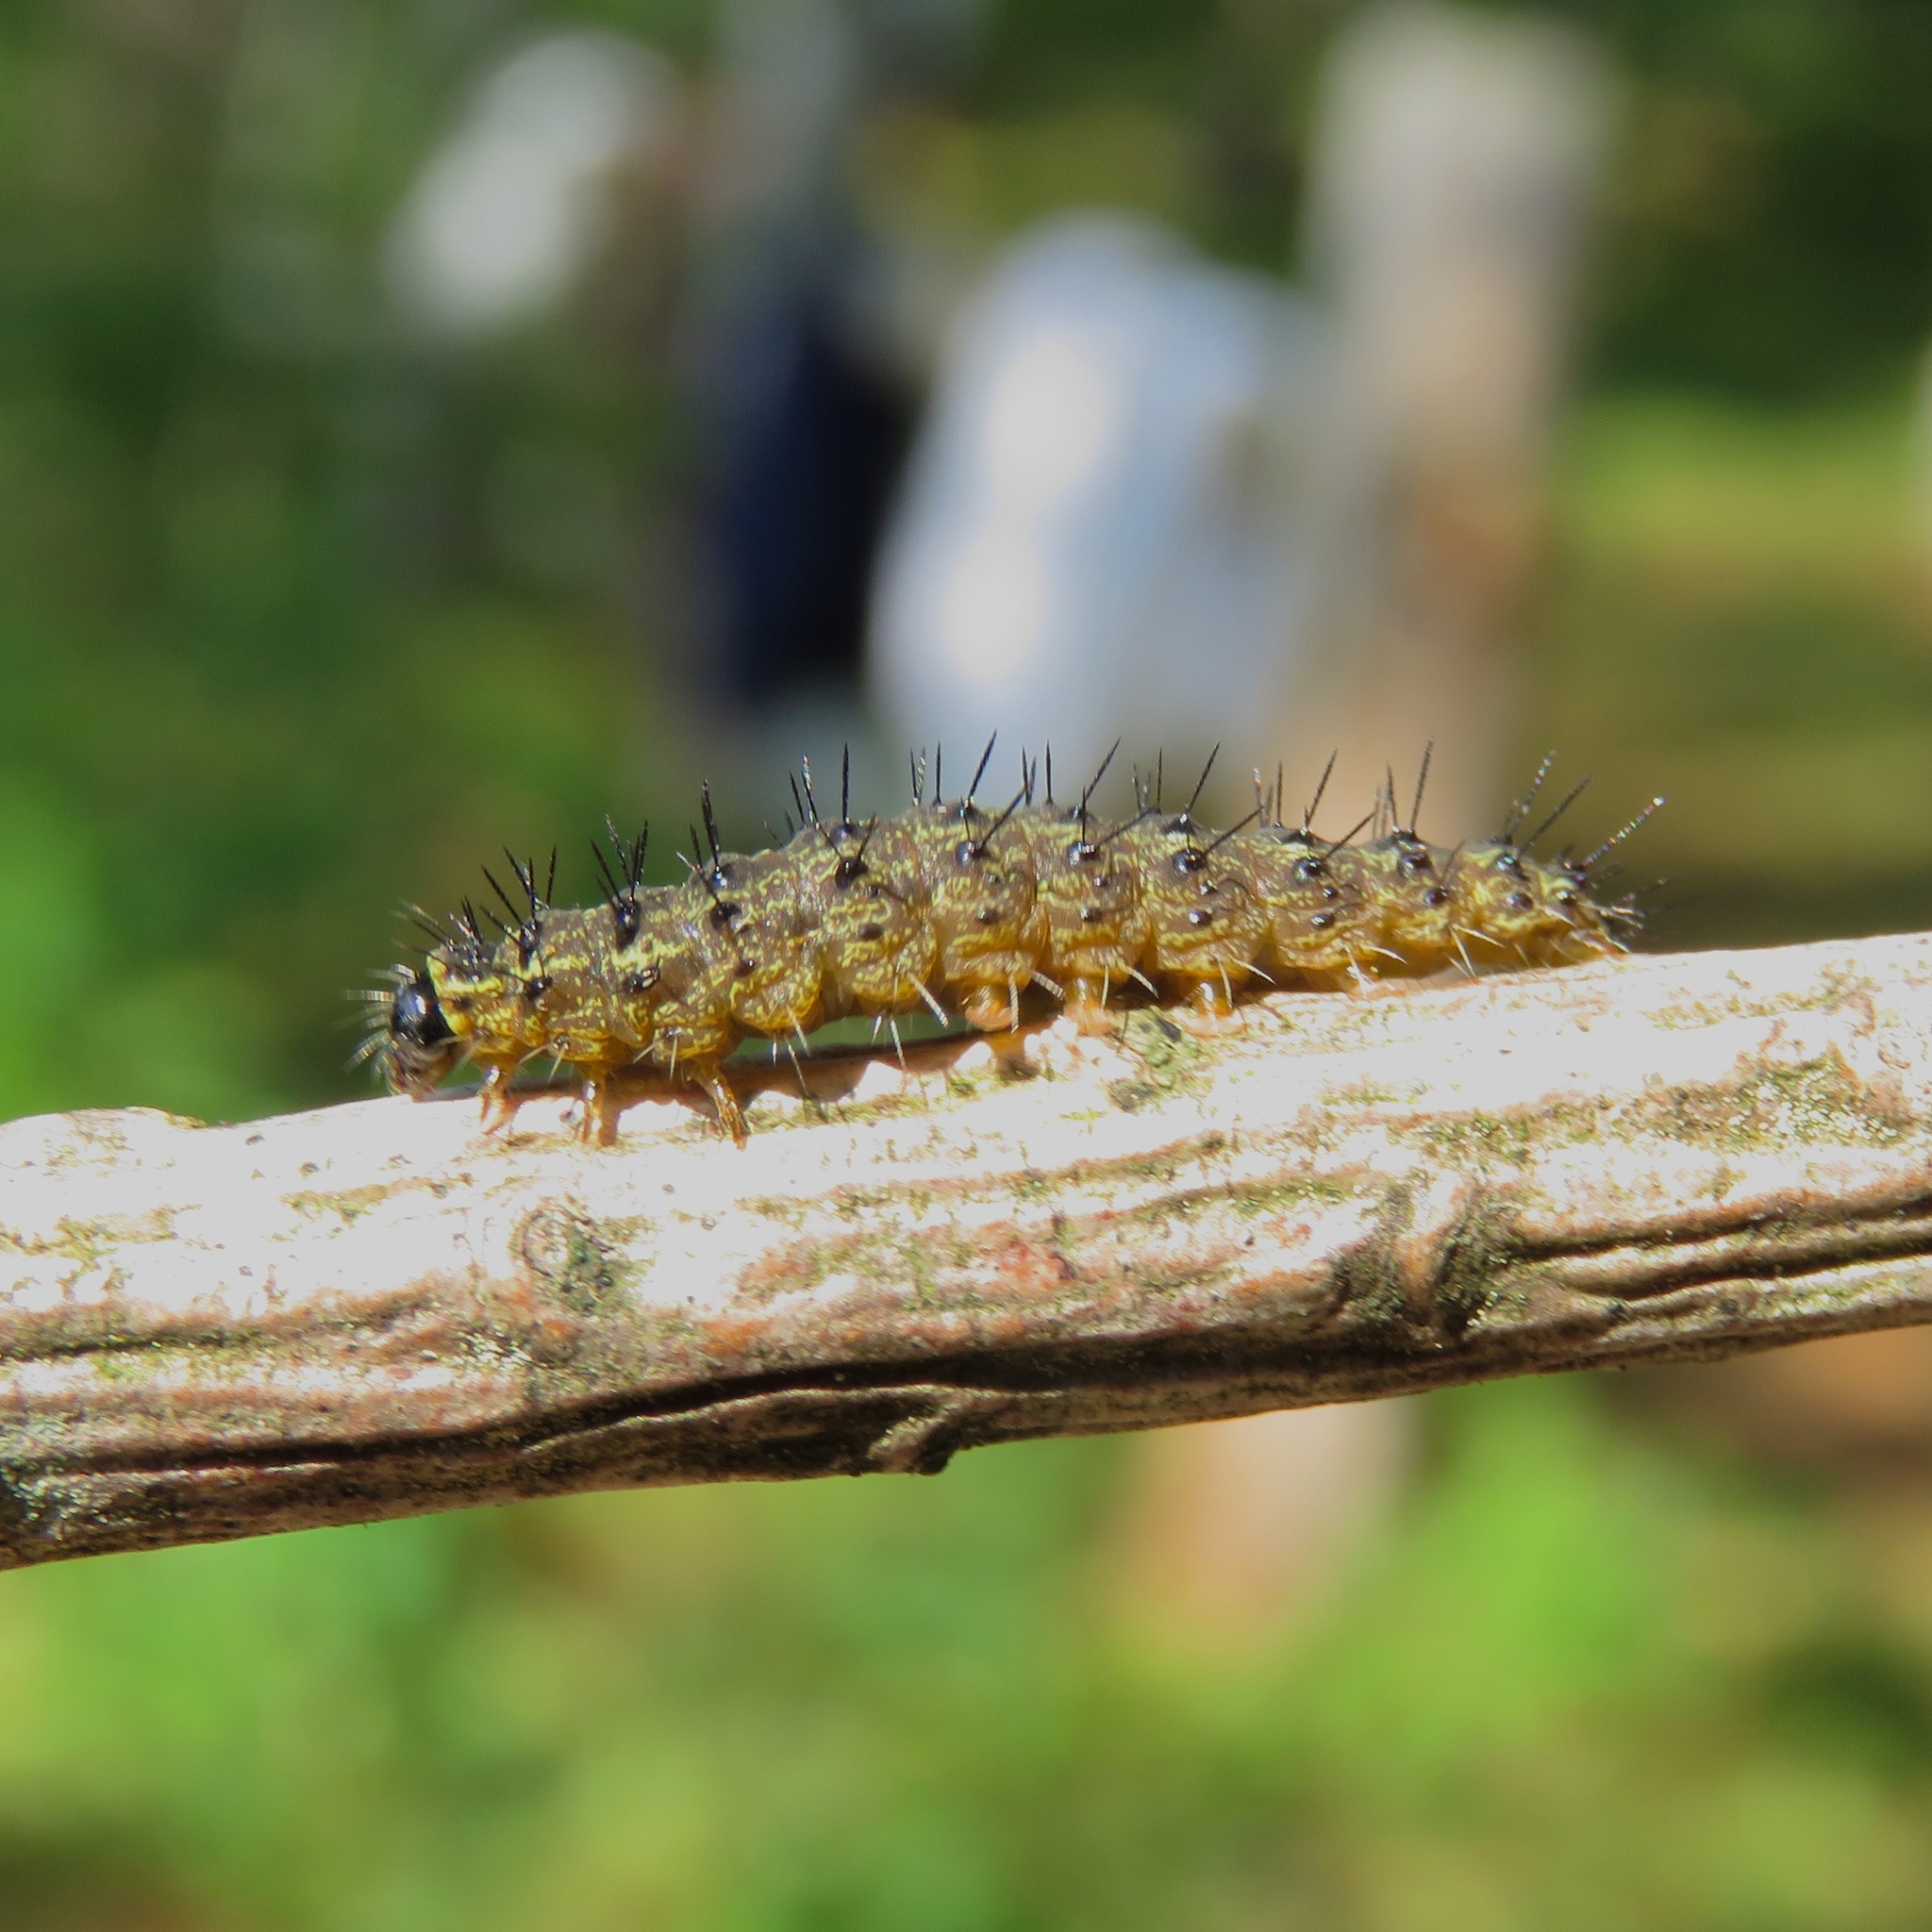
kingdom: Animalia
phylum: Arthropoda
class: Insecta
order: Lepidoptera
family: Erebidae
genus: Hypoprepia
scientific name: Hypoprepia fucosa
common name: Painted lichen moth
